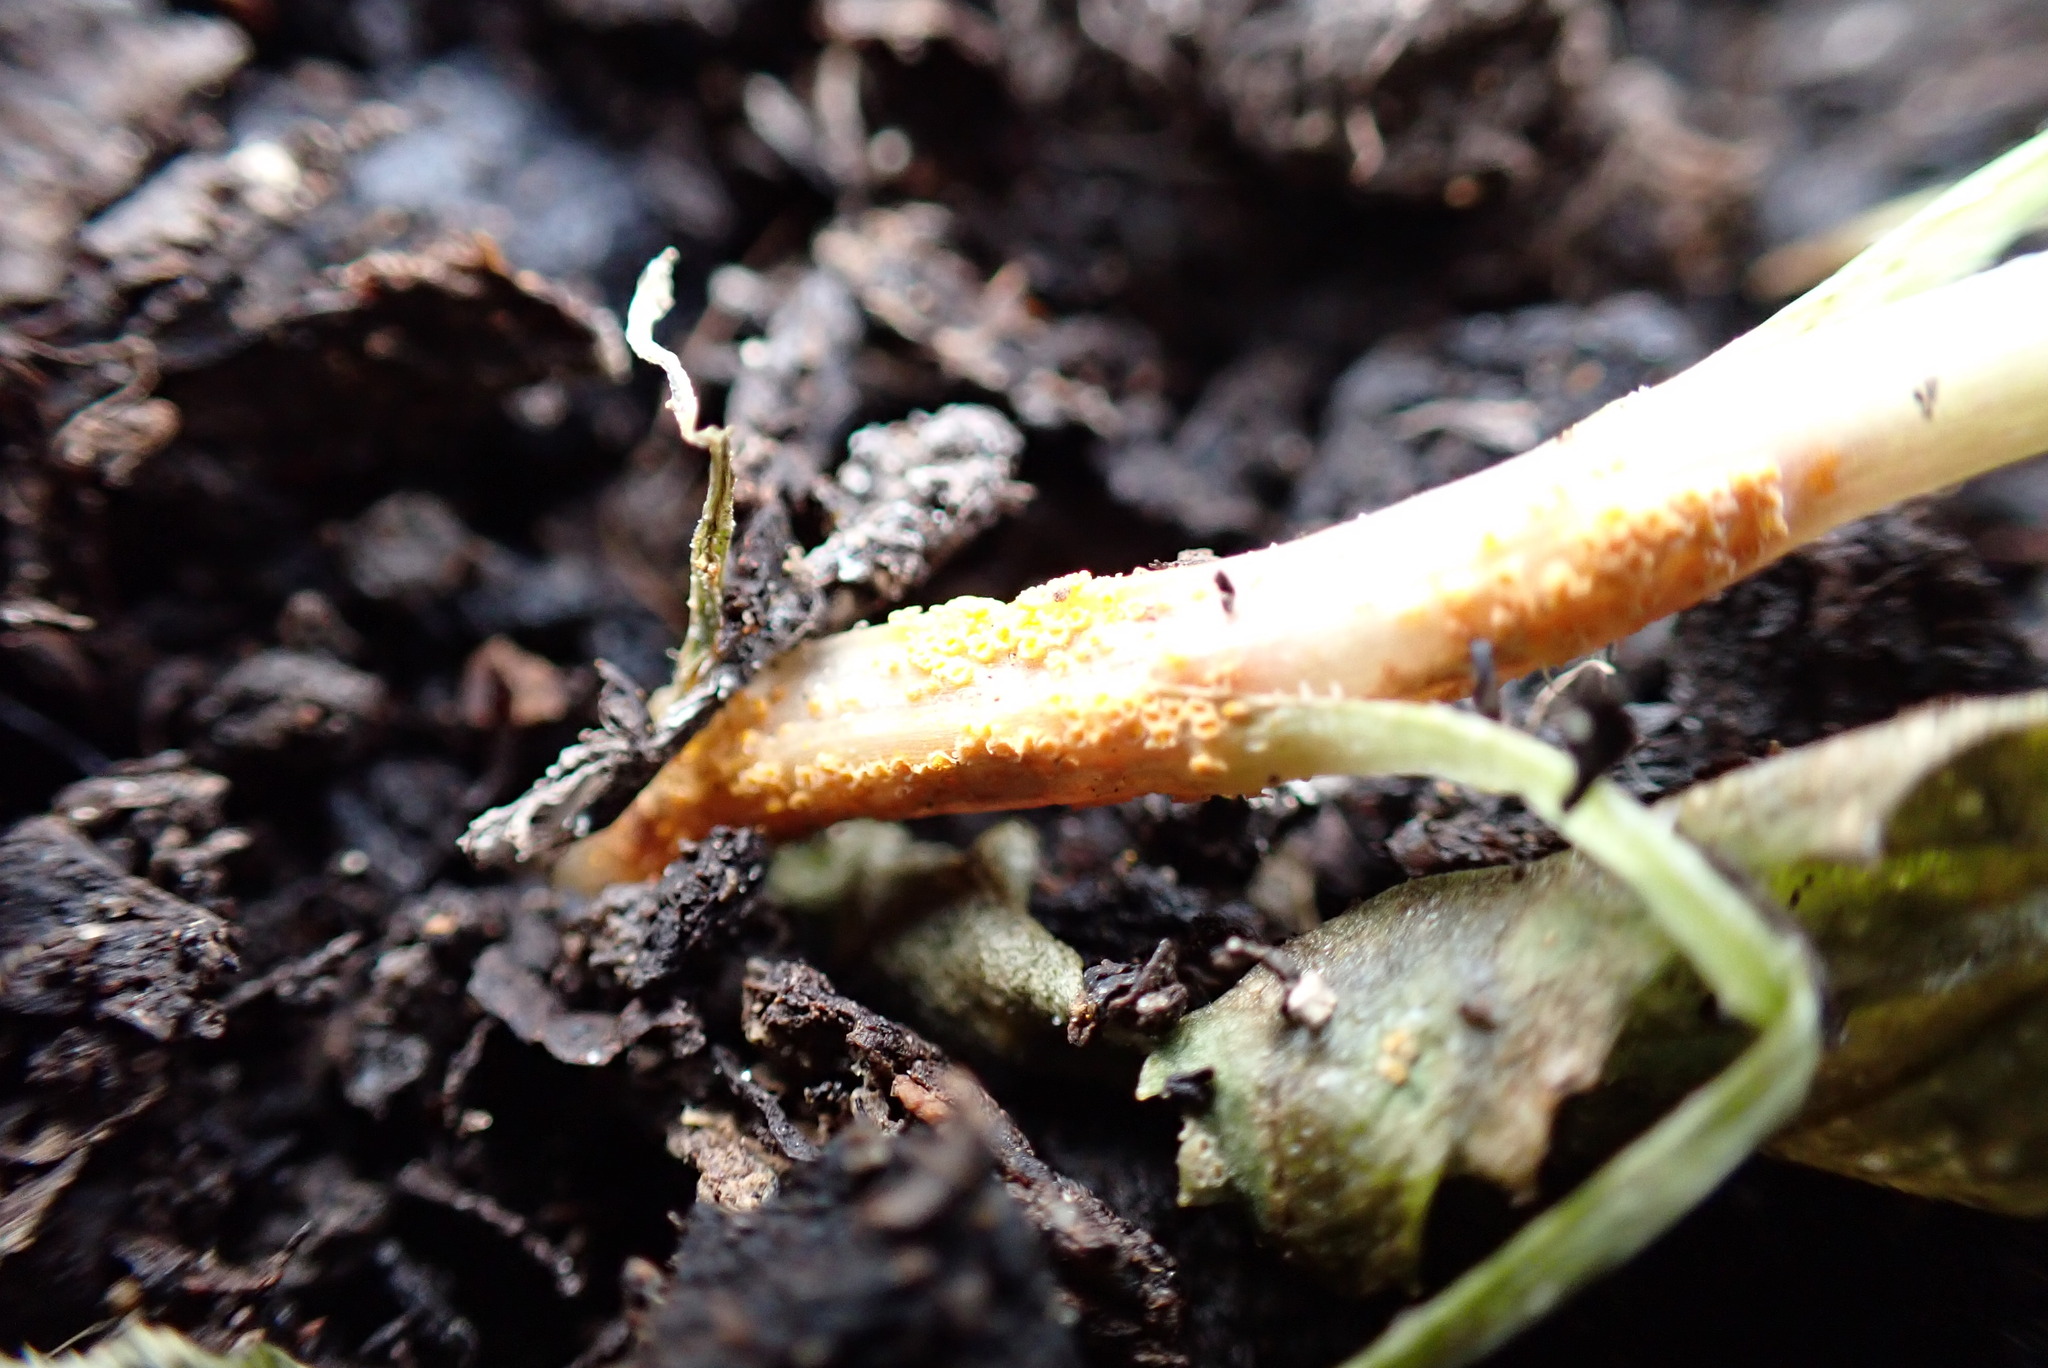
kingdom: Fungi
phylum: Basidiomycota
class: Pucciniomycetes
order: Pucciniales
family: Pucciniaceae
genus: Puccinia
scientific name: Puccinia lagenophorae
